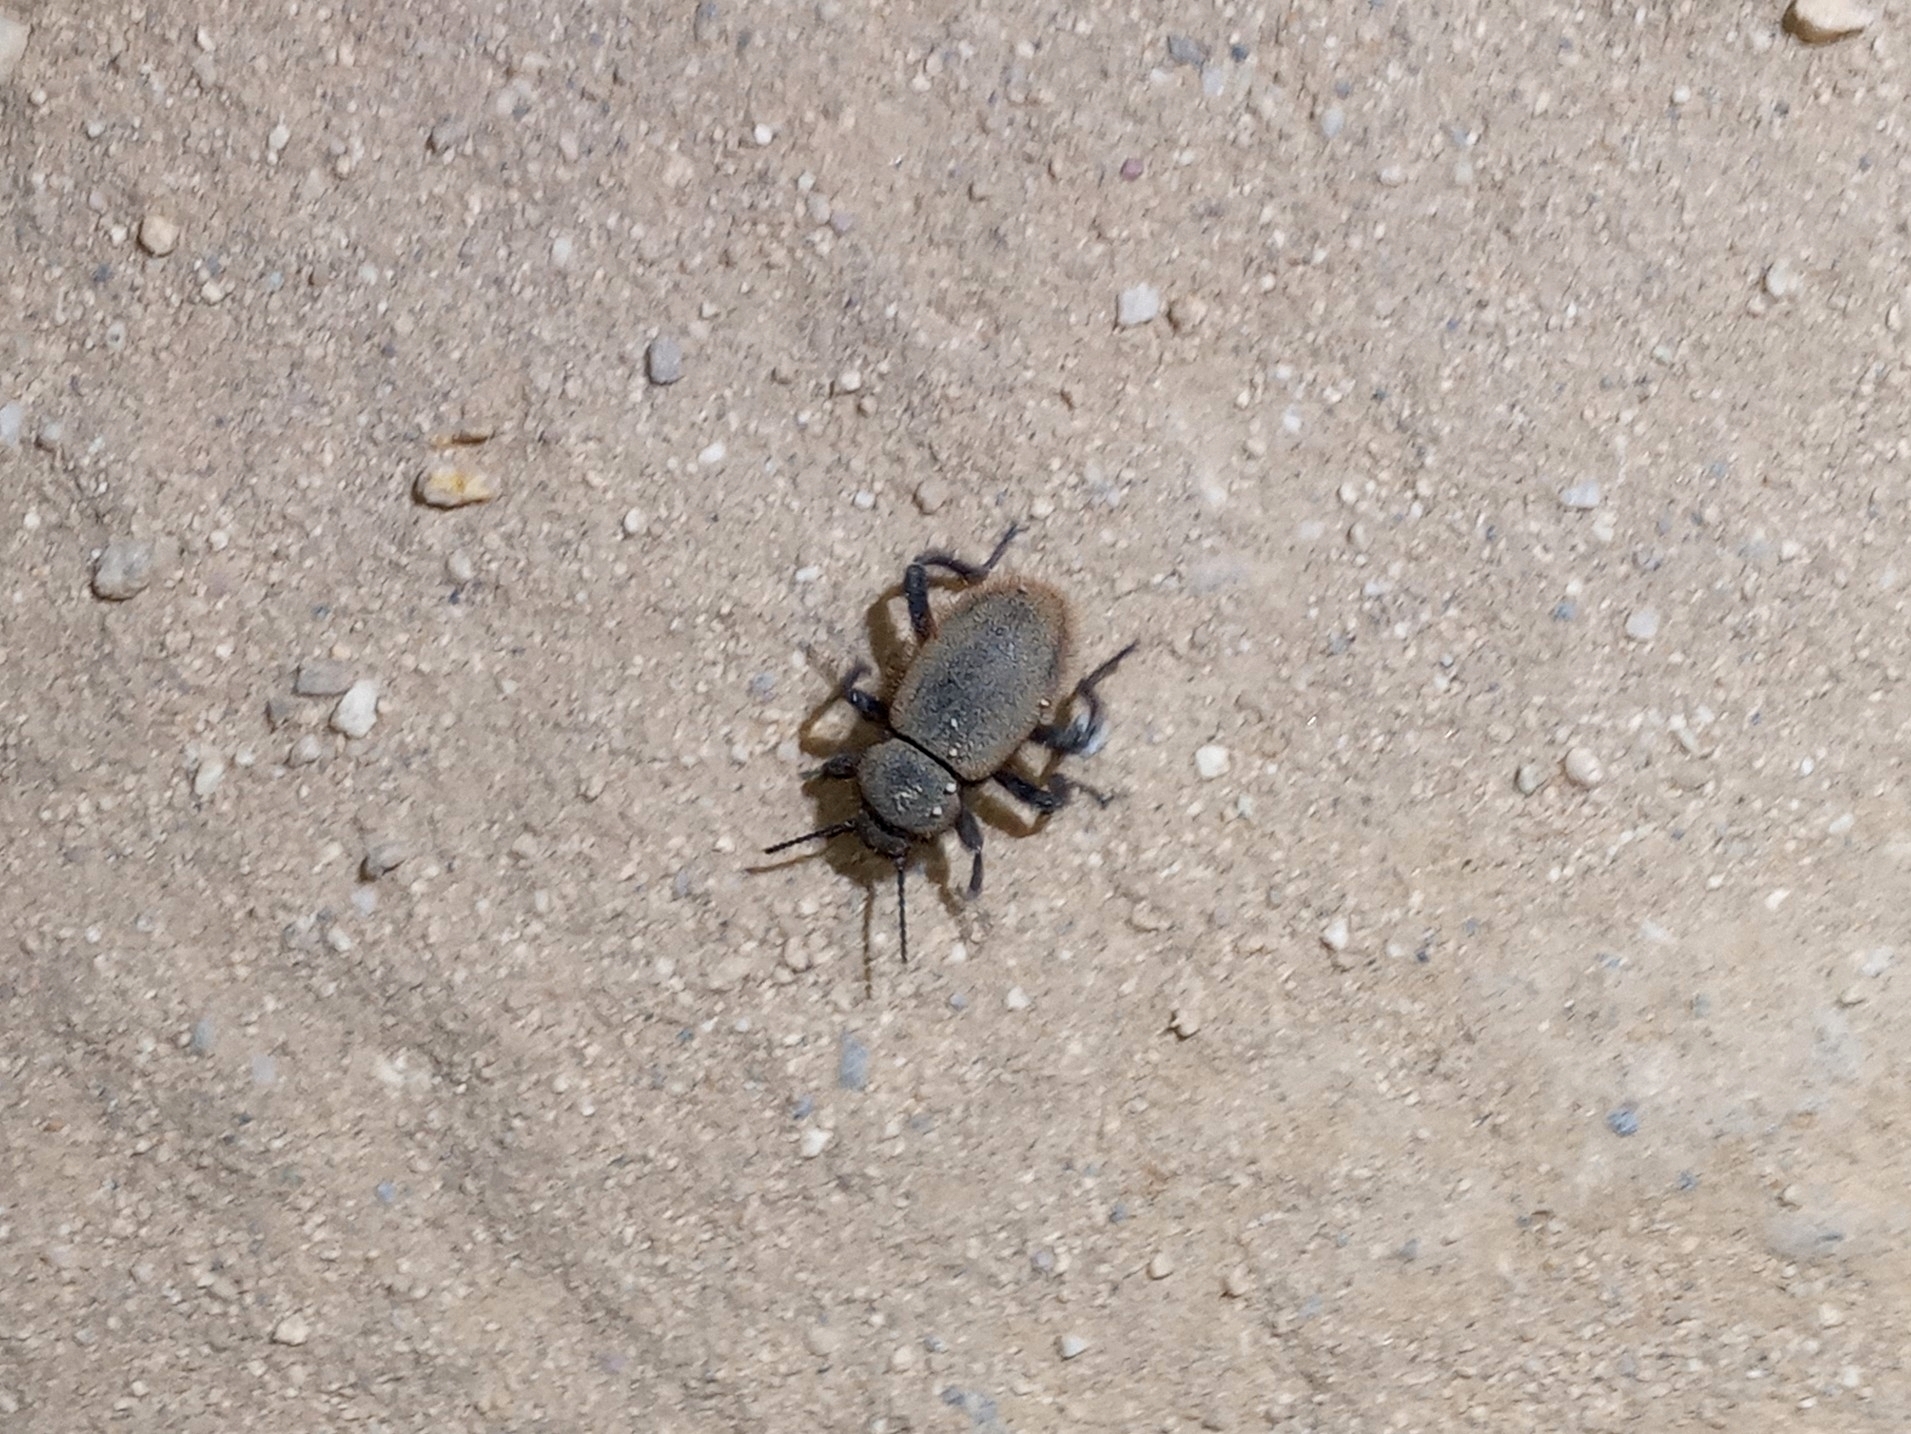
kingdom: Animalia
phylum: Arthropoda
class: Insecta
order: Coleoptera
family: Tenebrionidae
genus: Eleodes
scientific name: Eleodes osculans
